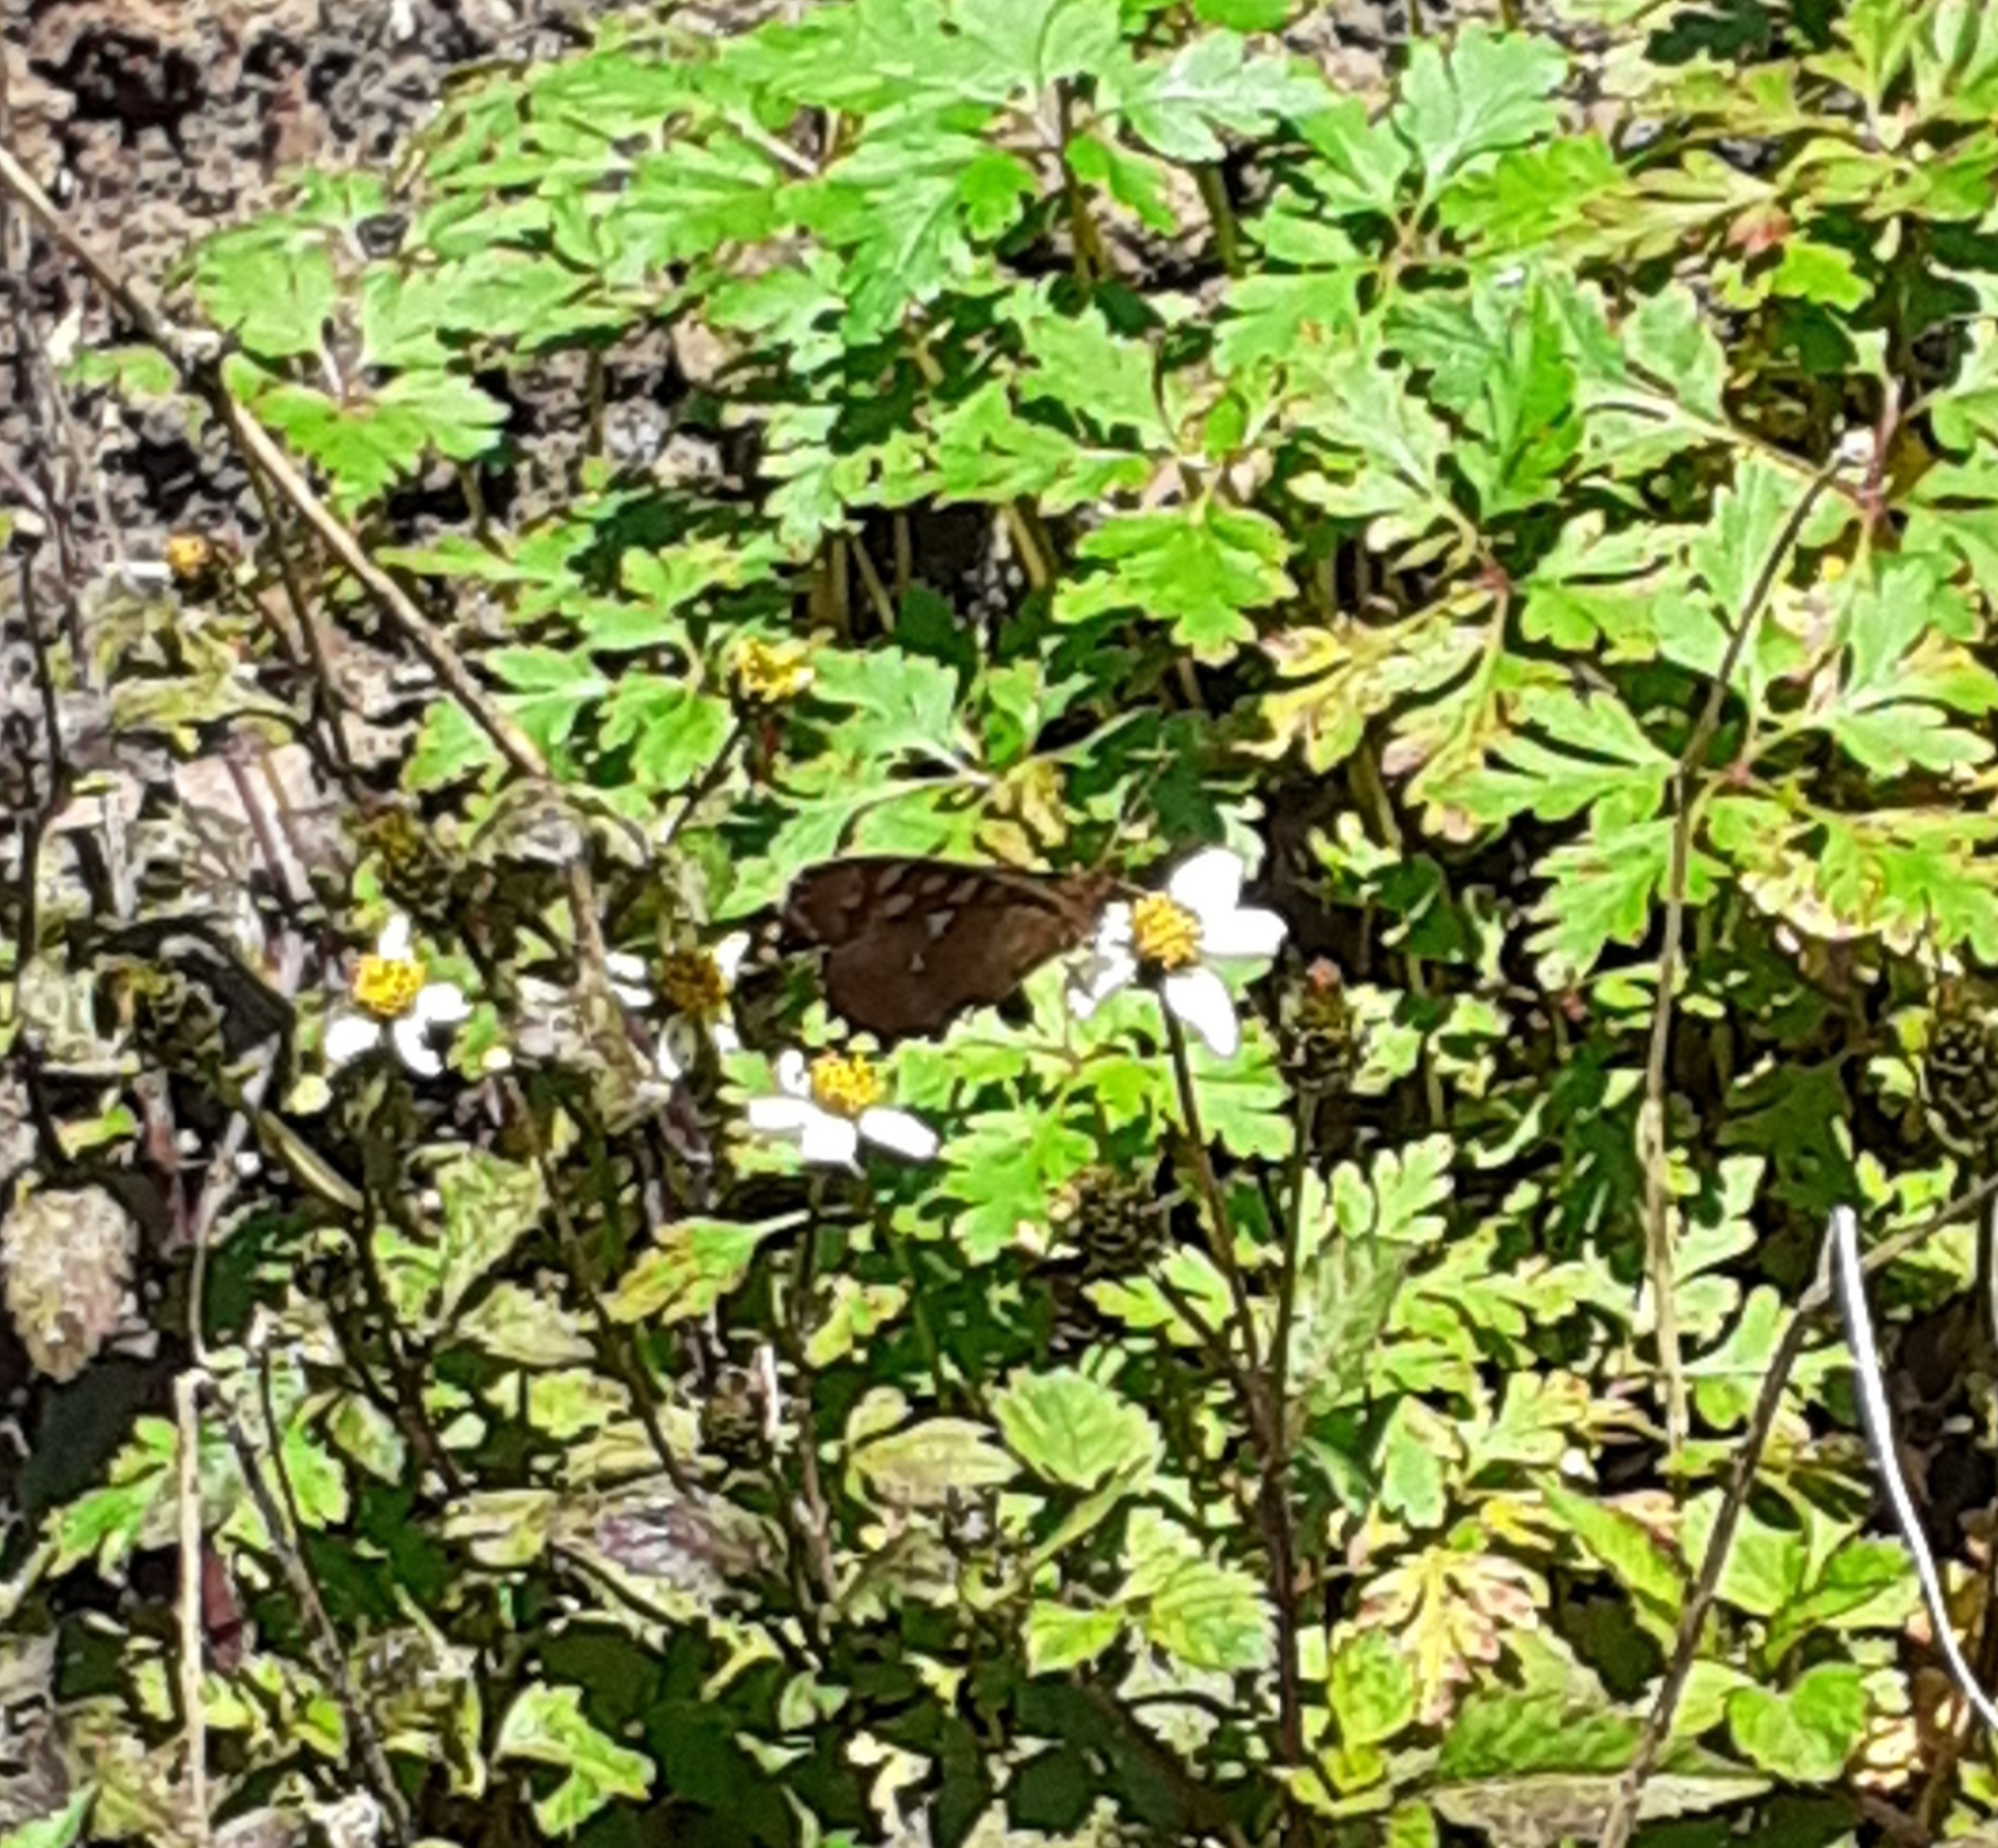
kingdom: Animalia
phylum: Arthropoda
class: Insecta
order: Lepidoptera
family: Nymphalidae
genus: Pararge
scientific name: Pararge aegeria
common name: Speckled wood
